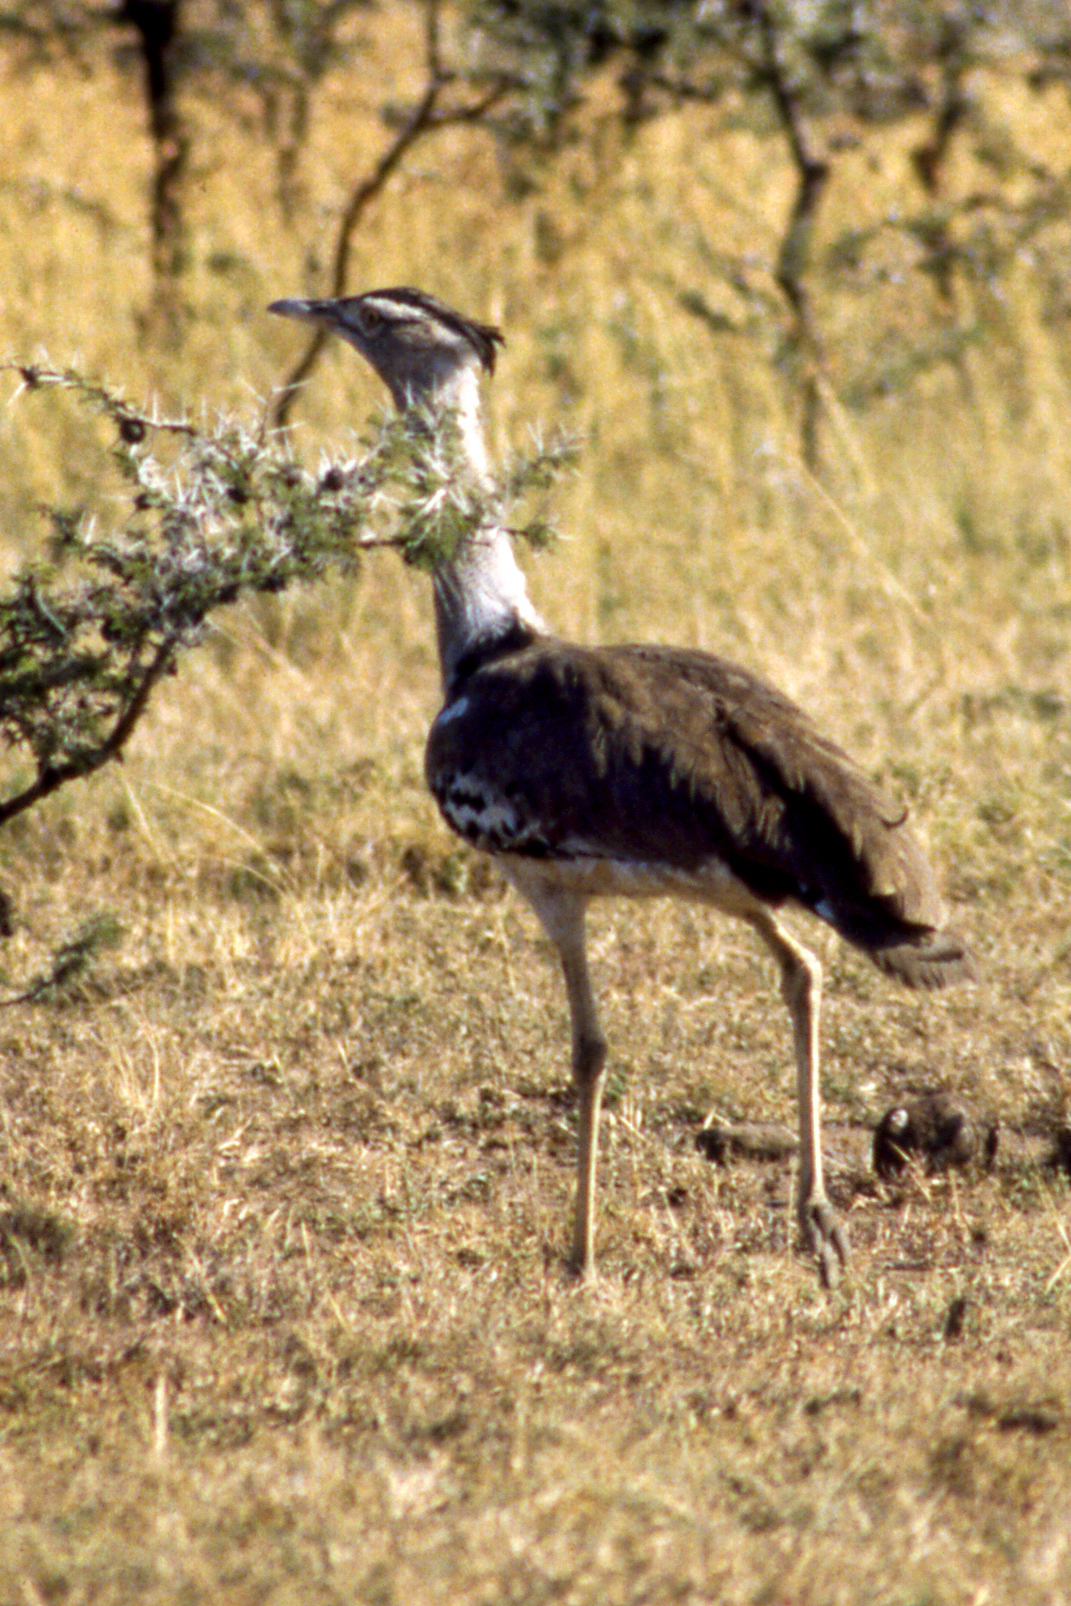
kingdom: Animalia
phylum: Chordata
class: Aves
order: Otidiformes
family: Otididae
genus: Ardeotis
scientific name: Ardeotis kori
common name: Kori bustard
